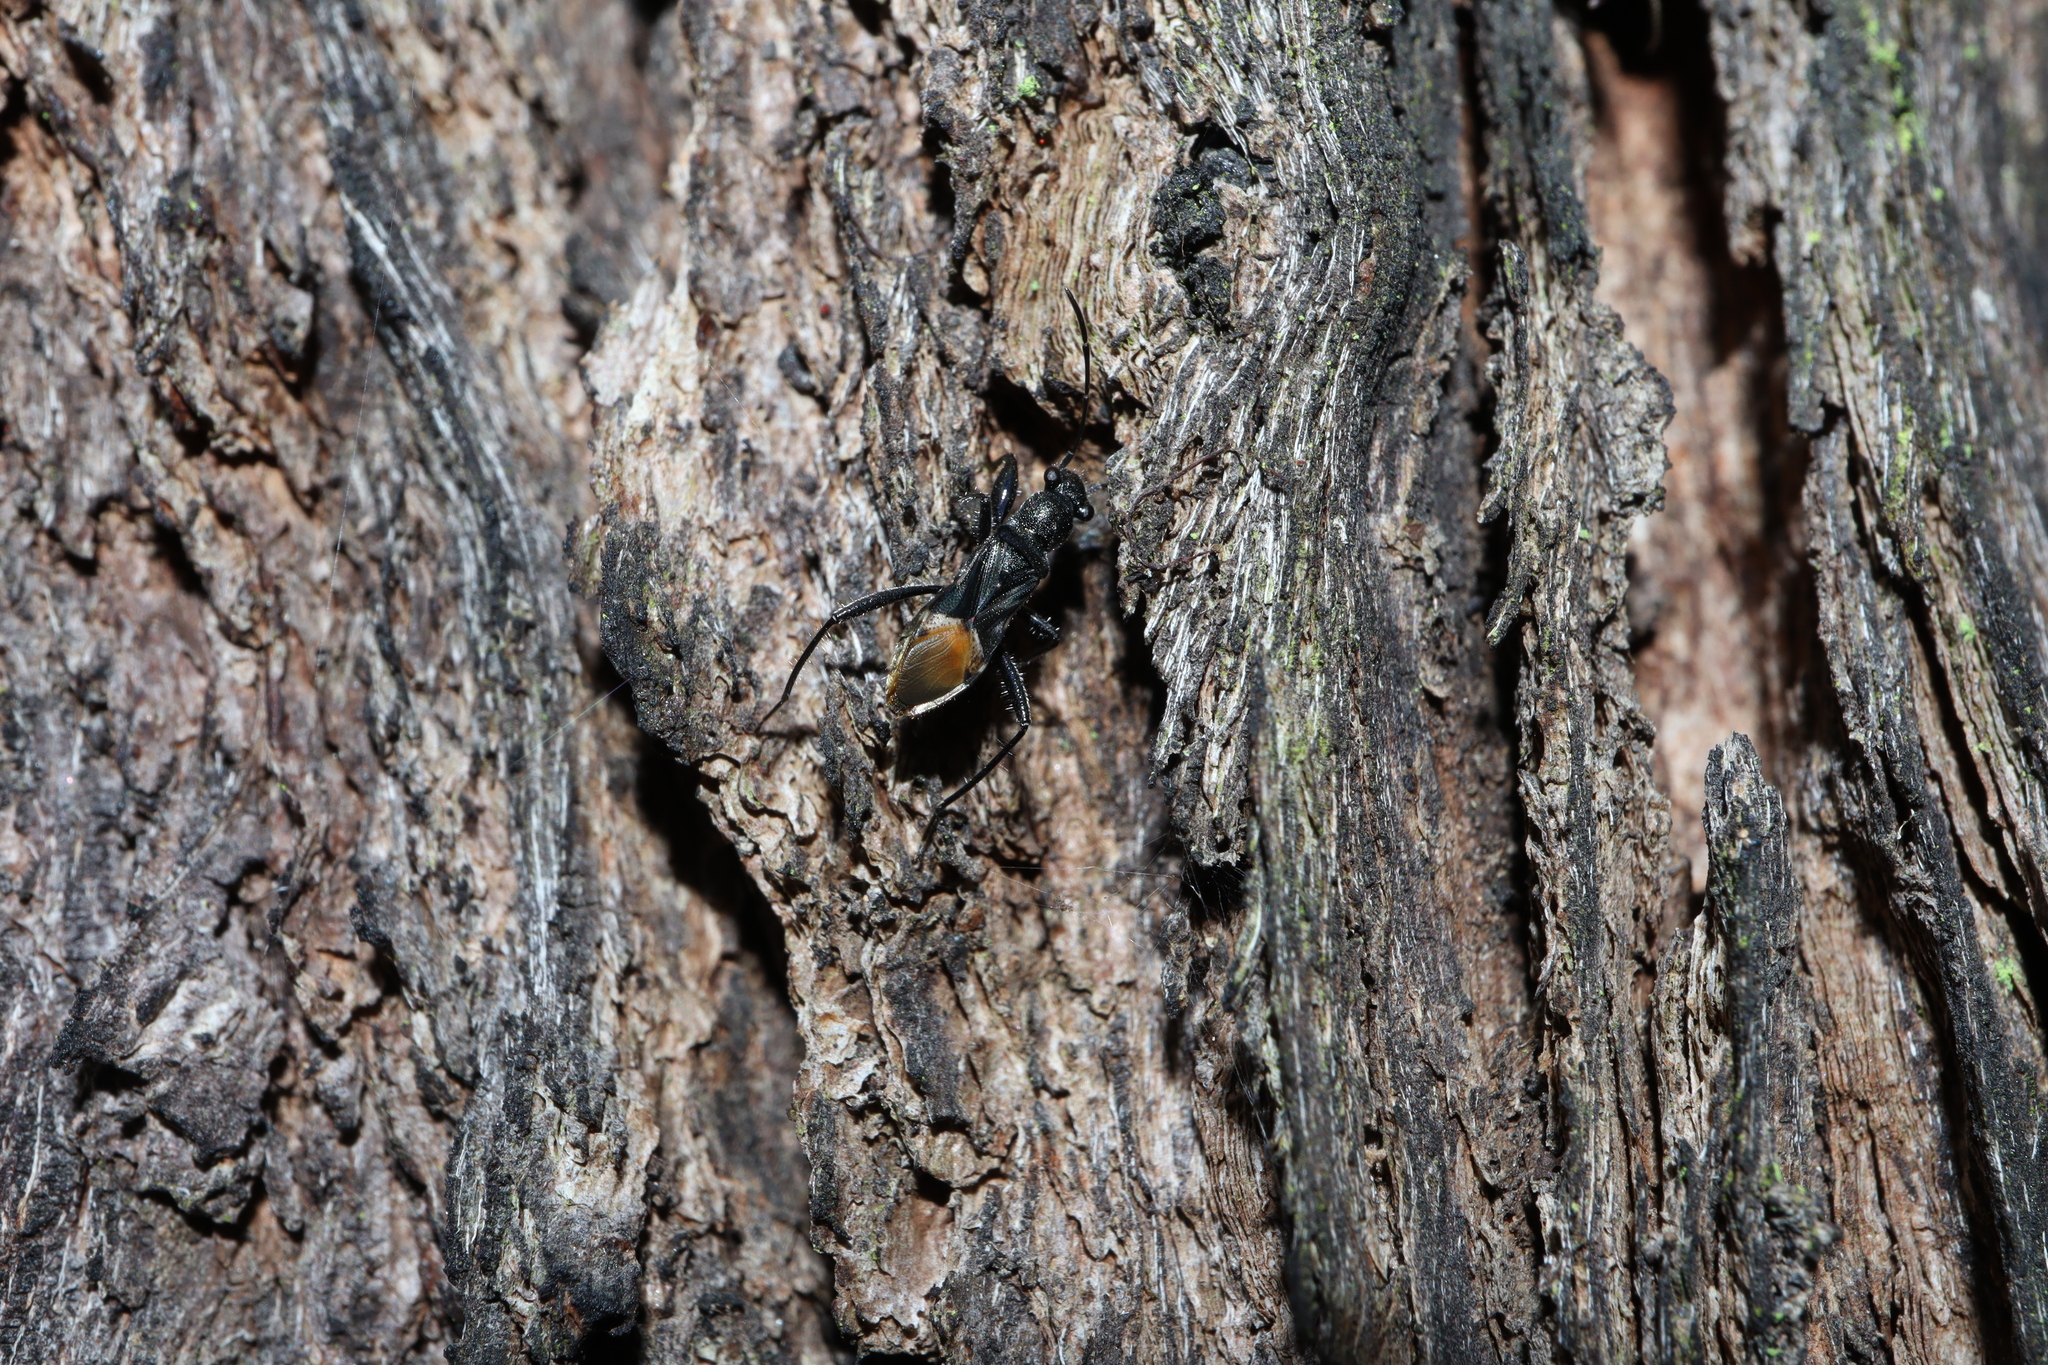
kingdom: Animalia
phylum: Arthropoda
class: Insecta
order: Hemiptera
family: Rhyparochromidae
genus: Daerlac
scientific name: Daerlac nigricans
